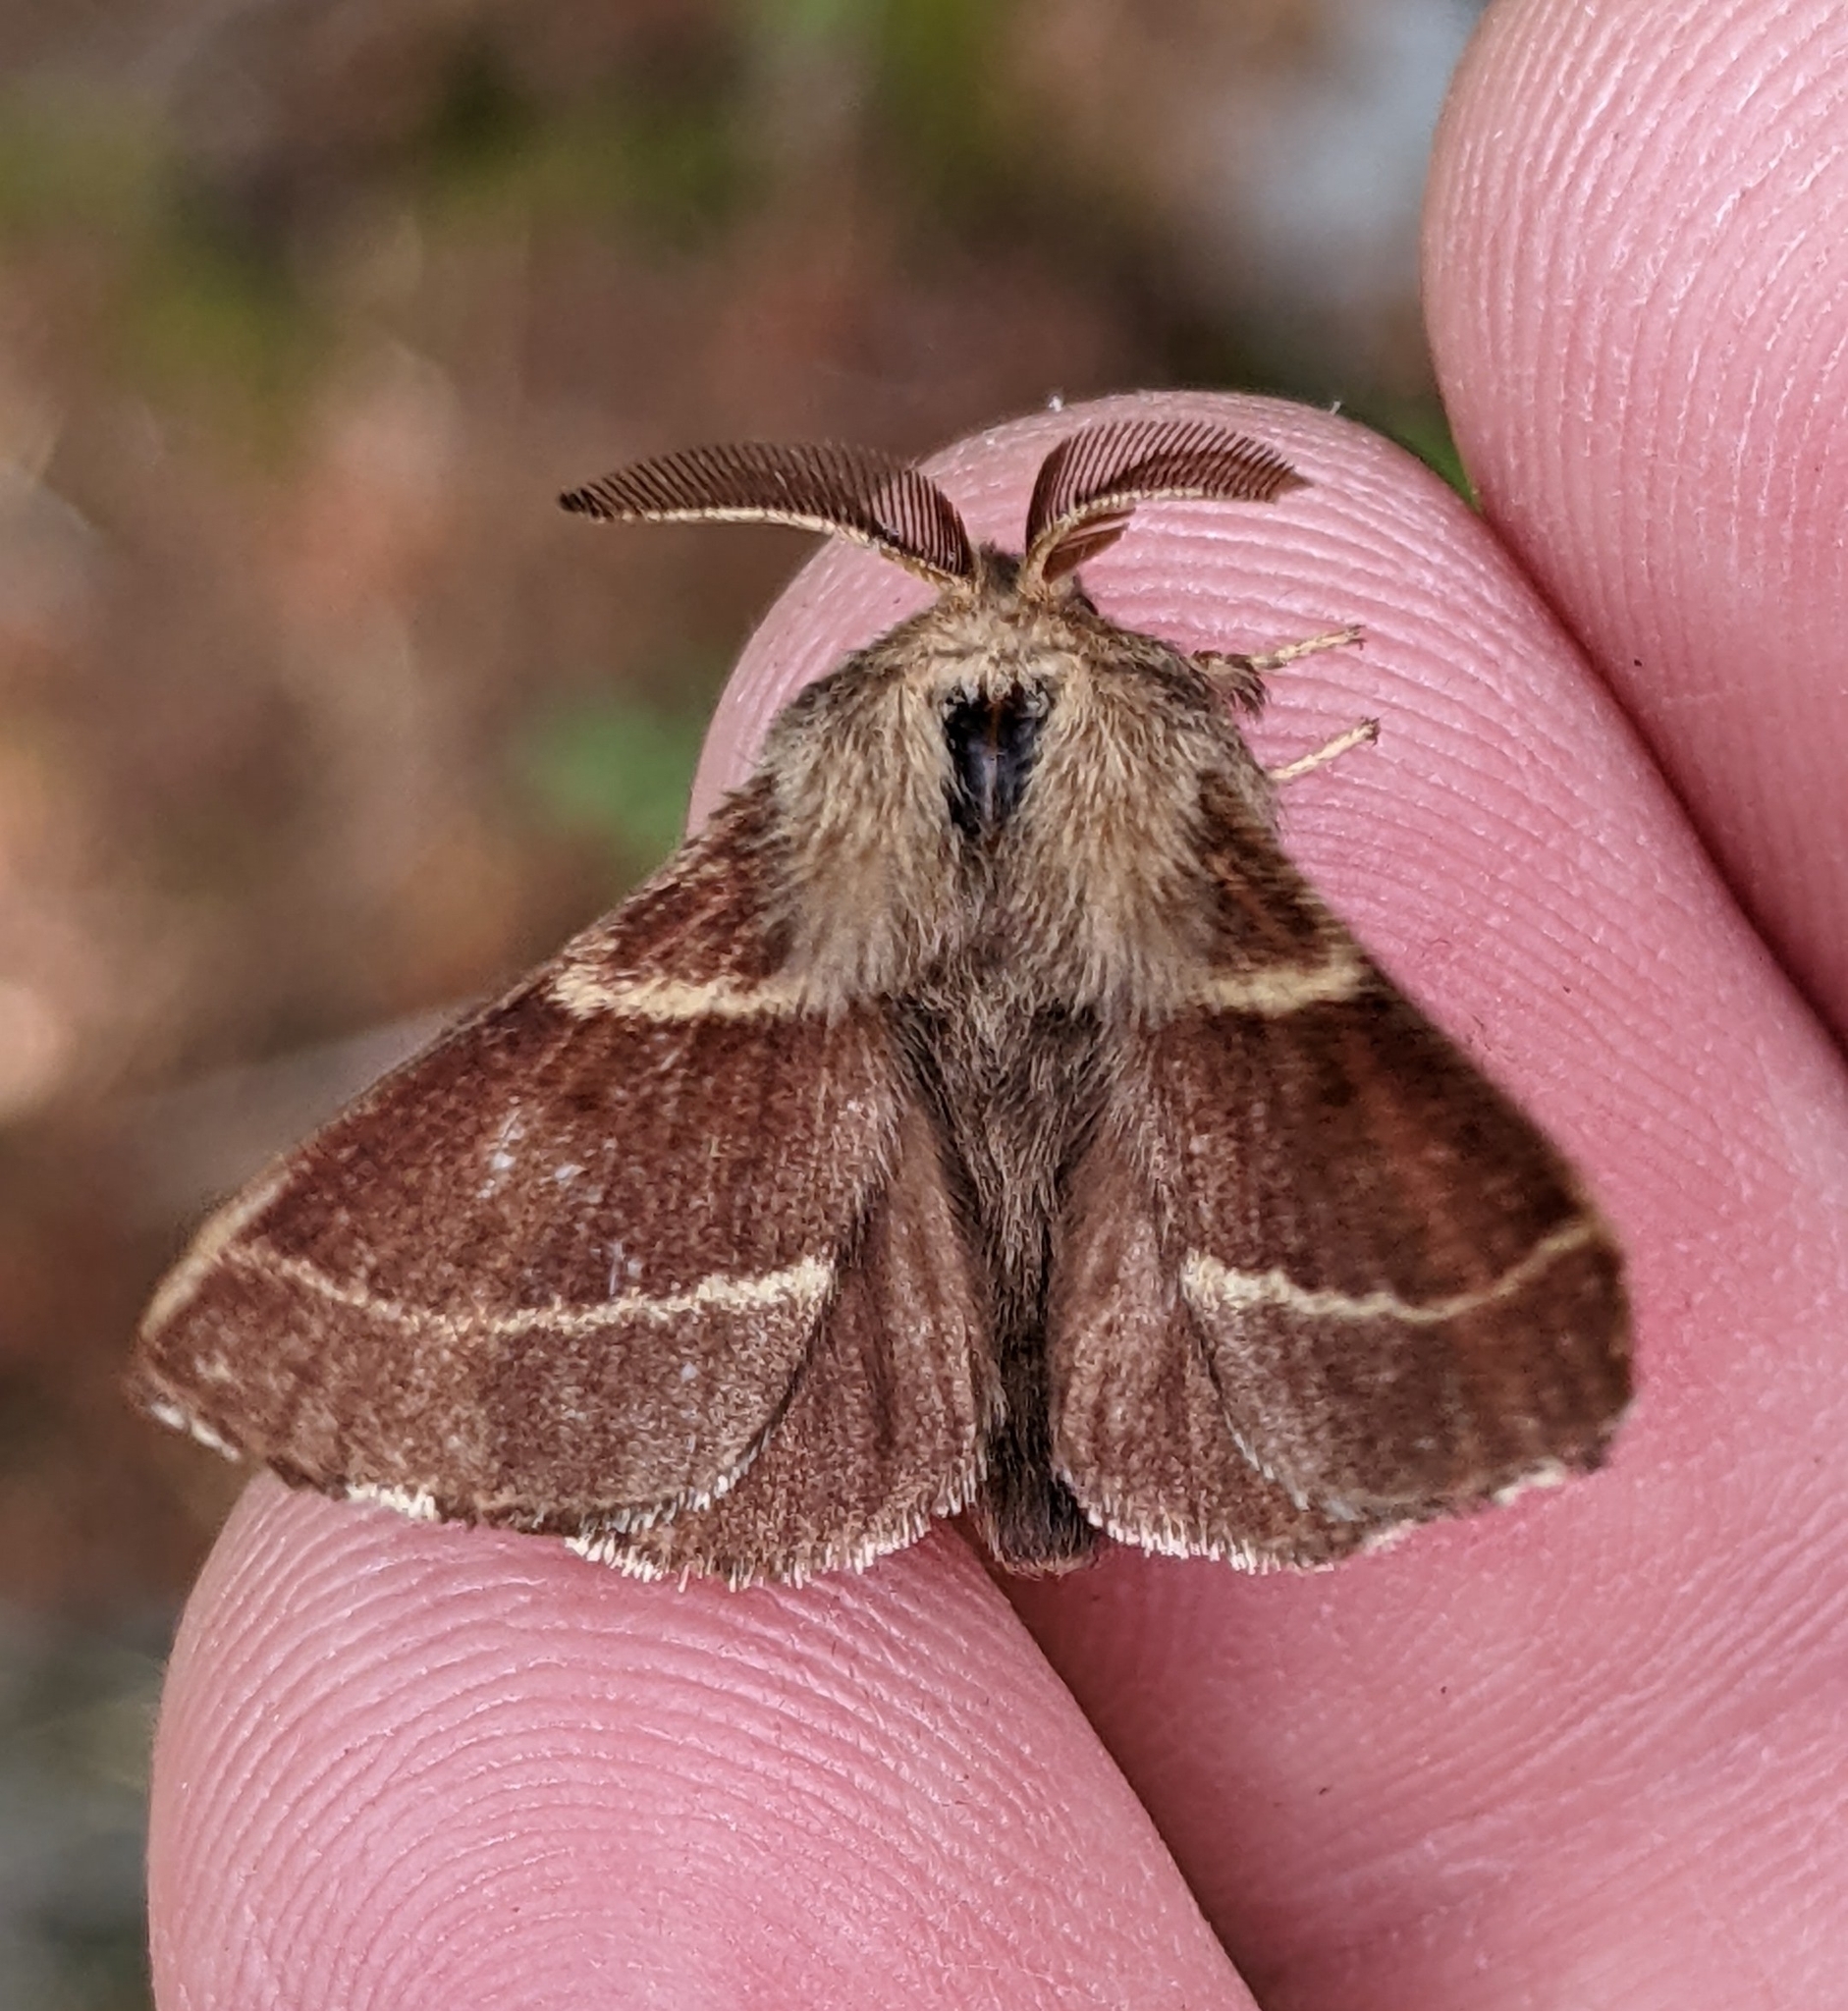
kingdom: Animalia
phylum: Arthropoda
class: Insecta
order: Lepidoptera
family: Lasiocampidae
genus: Malacosoma
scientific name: Malacosoma californica
